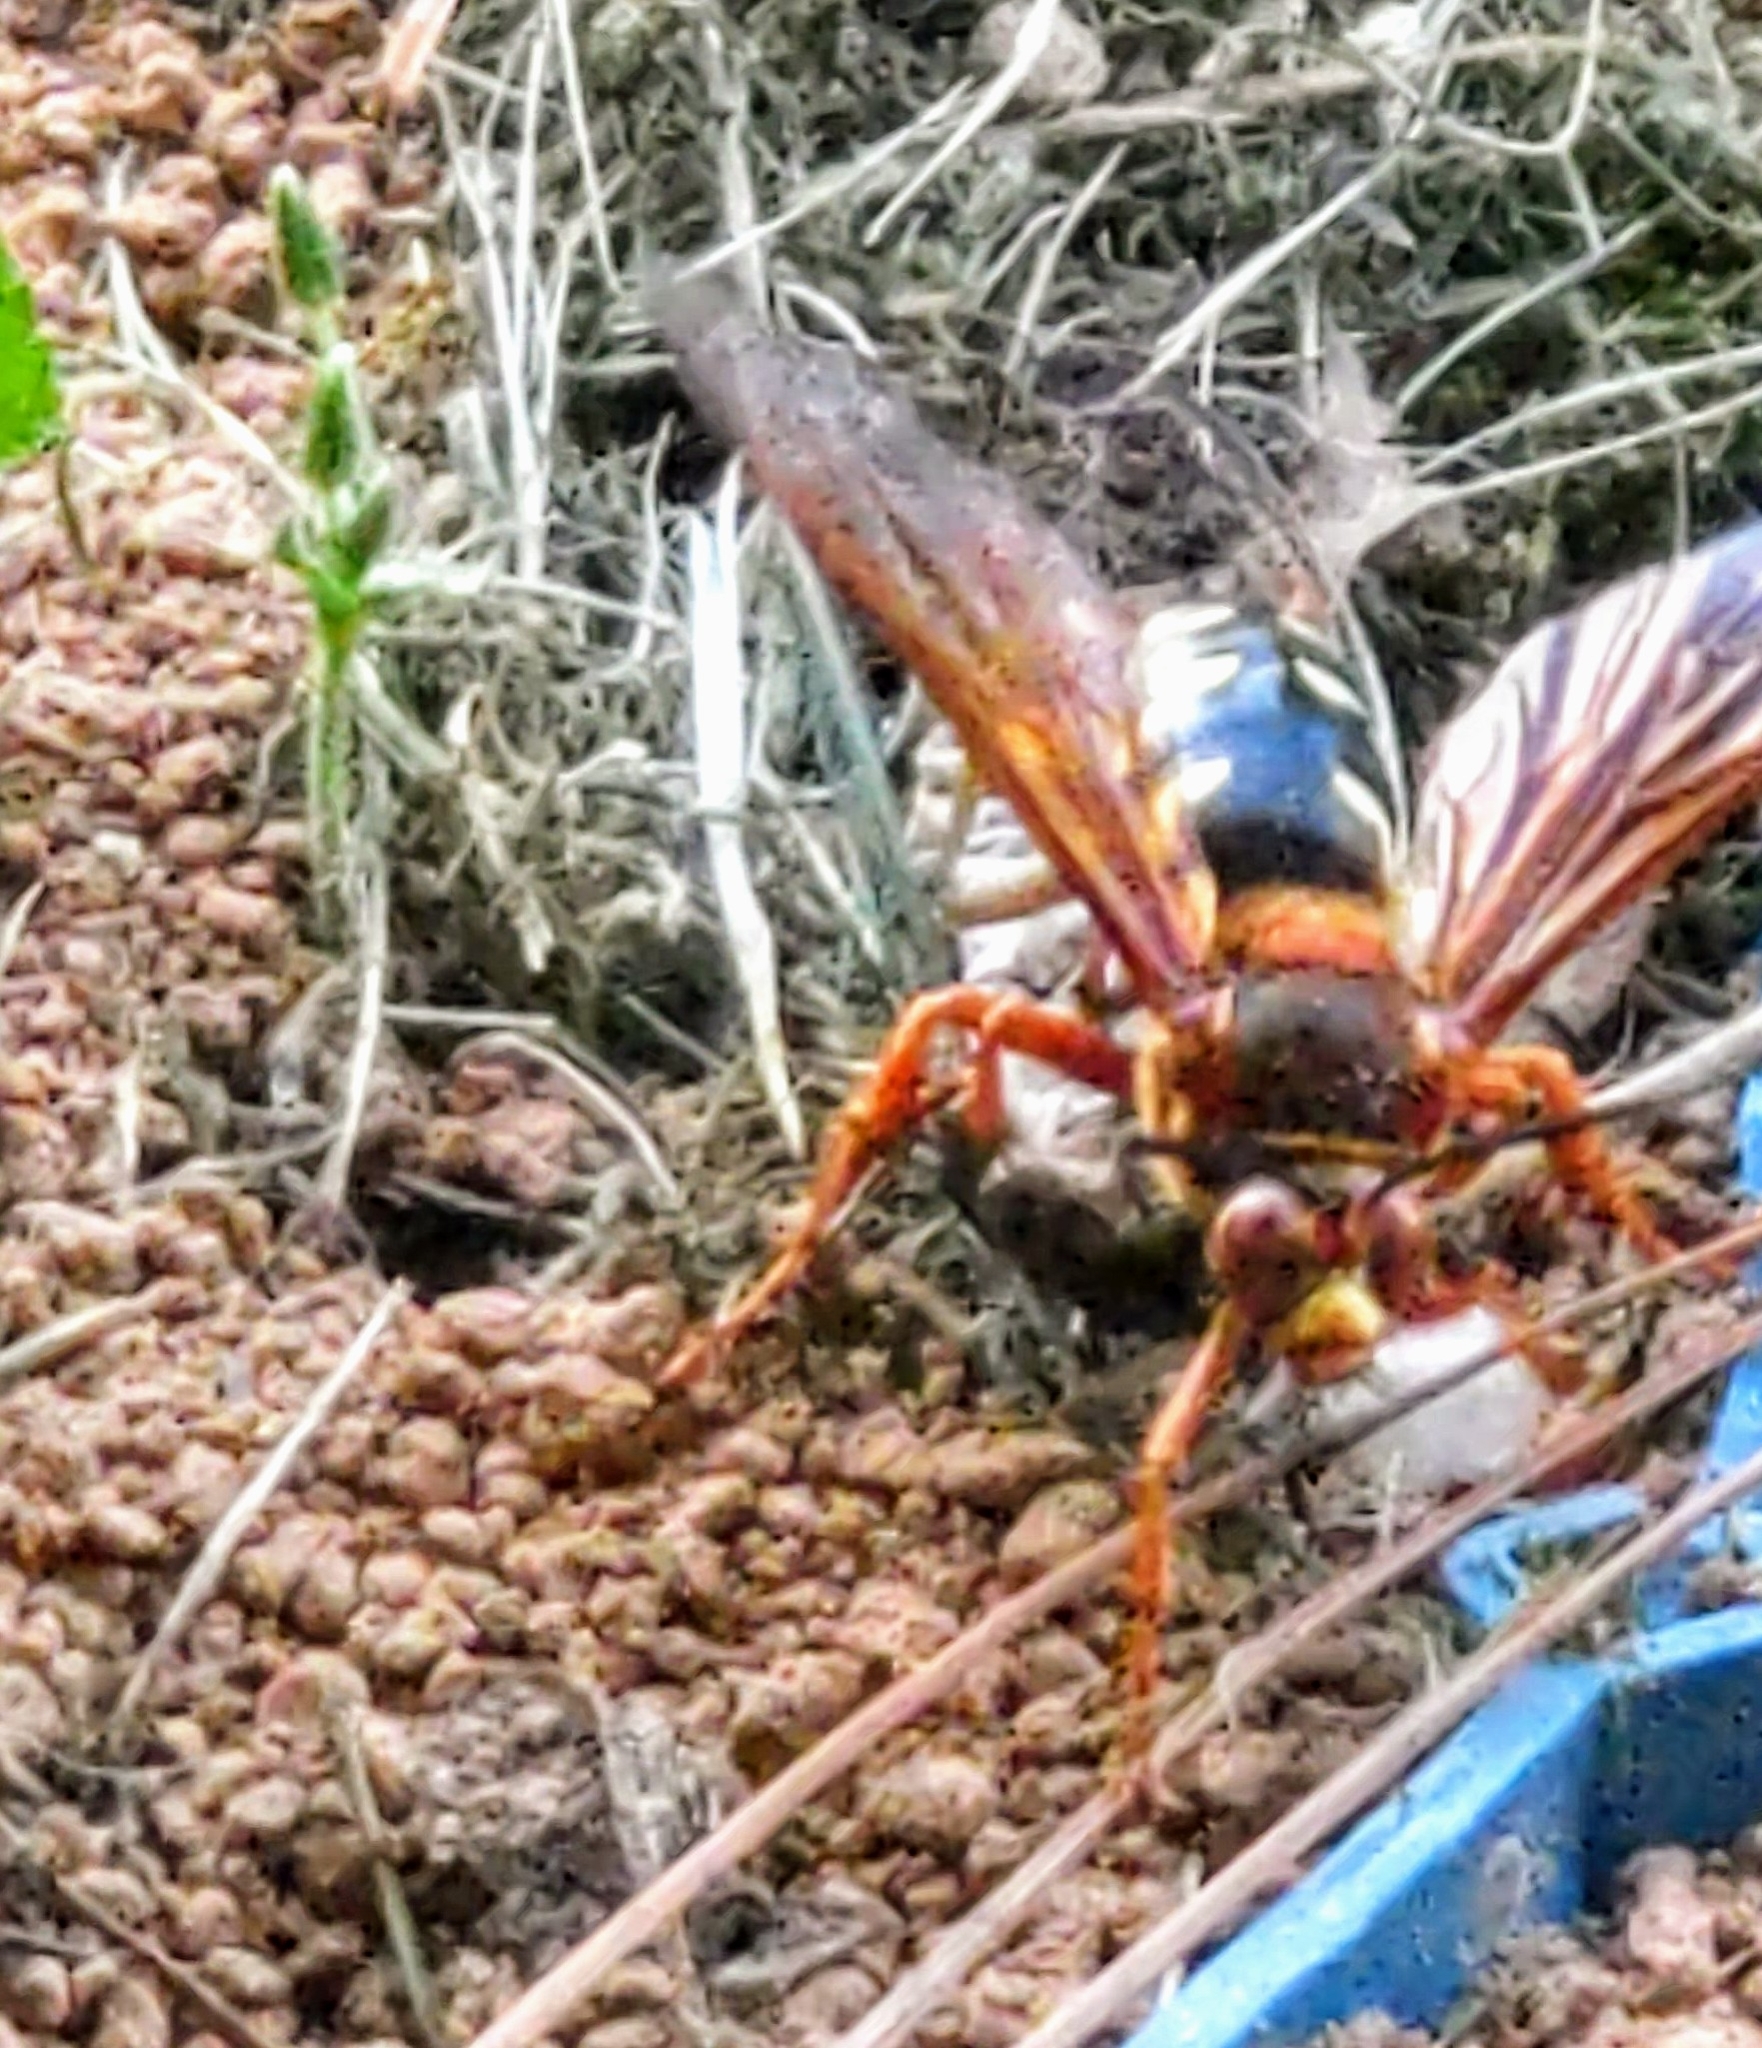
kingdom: Animalia
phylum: Arthropoda
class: Insecta
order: Hymenoptera
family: Crabronidae
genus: Sphecius
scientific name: Sphecius speciosus
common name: Cicada killer
